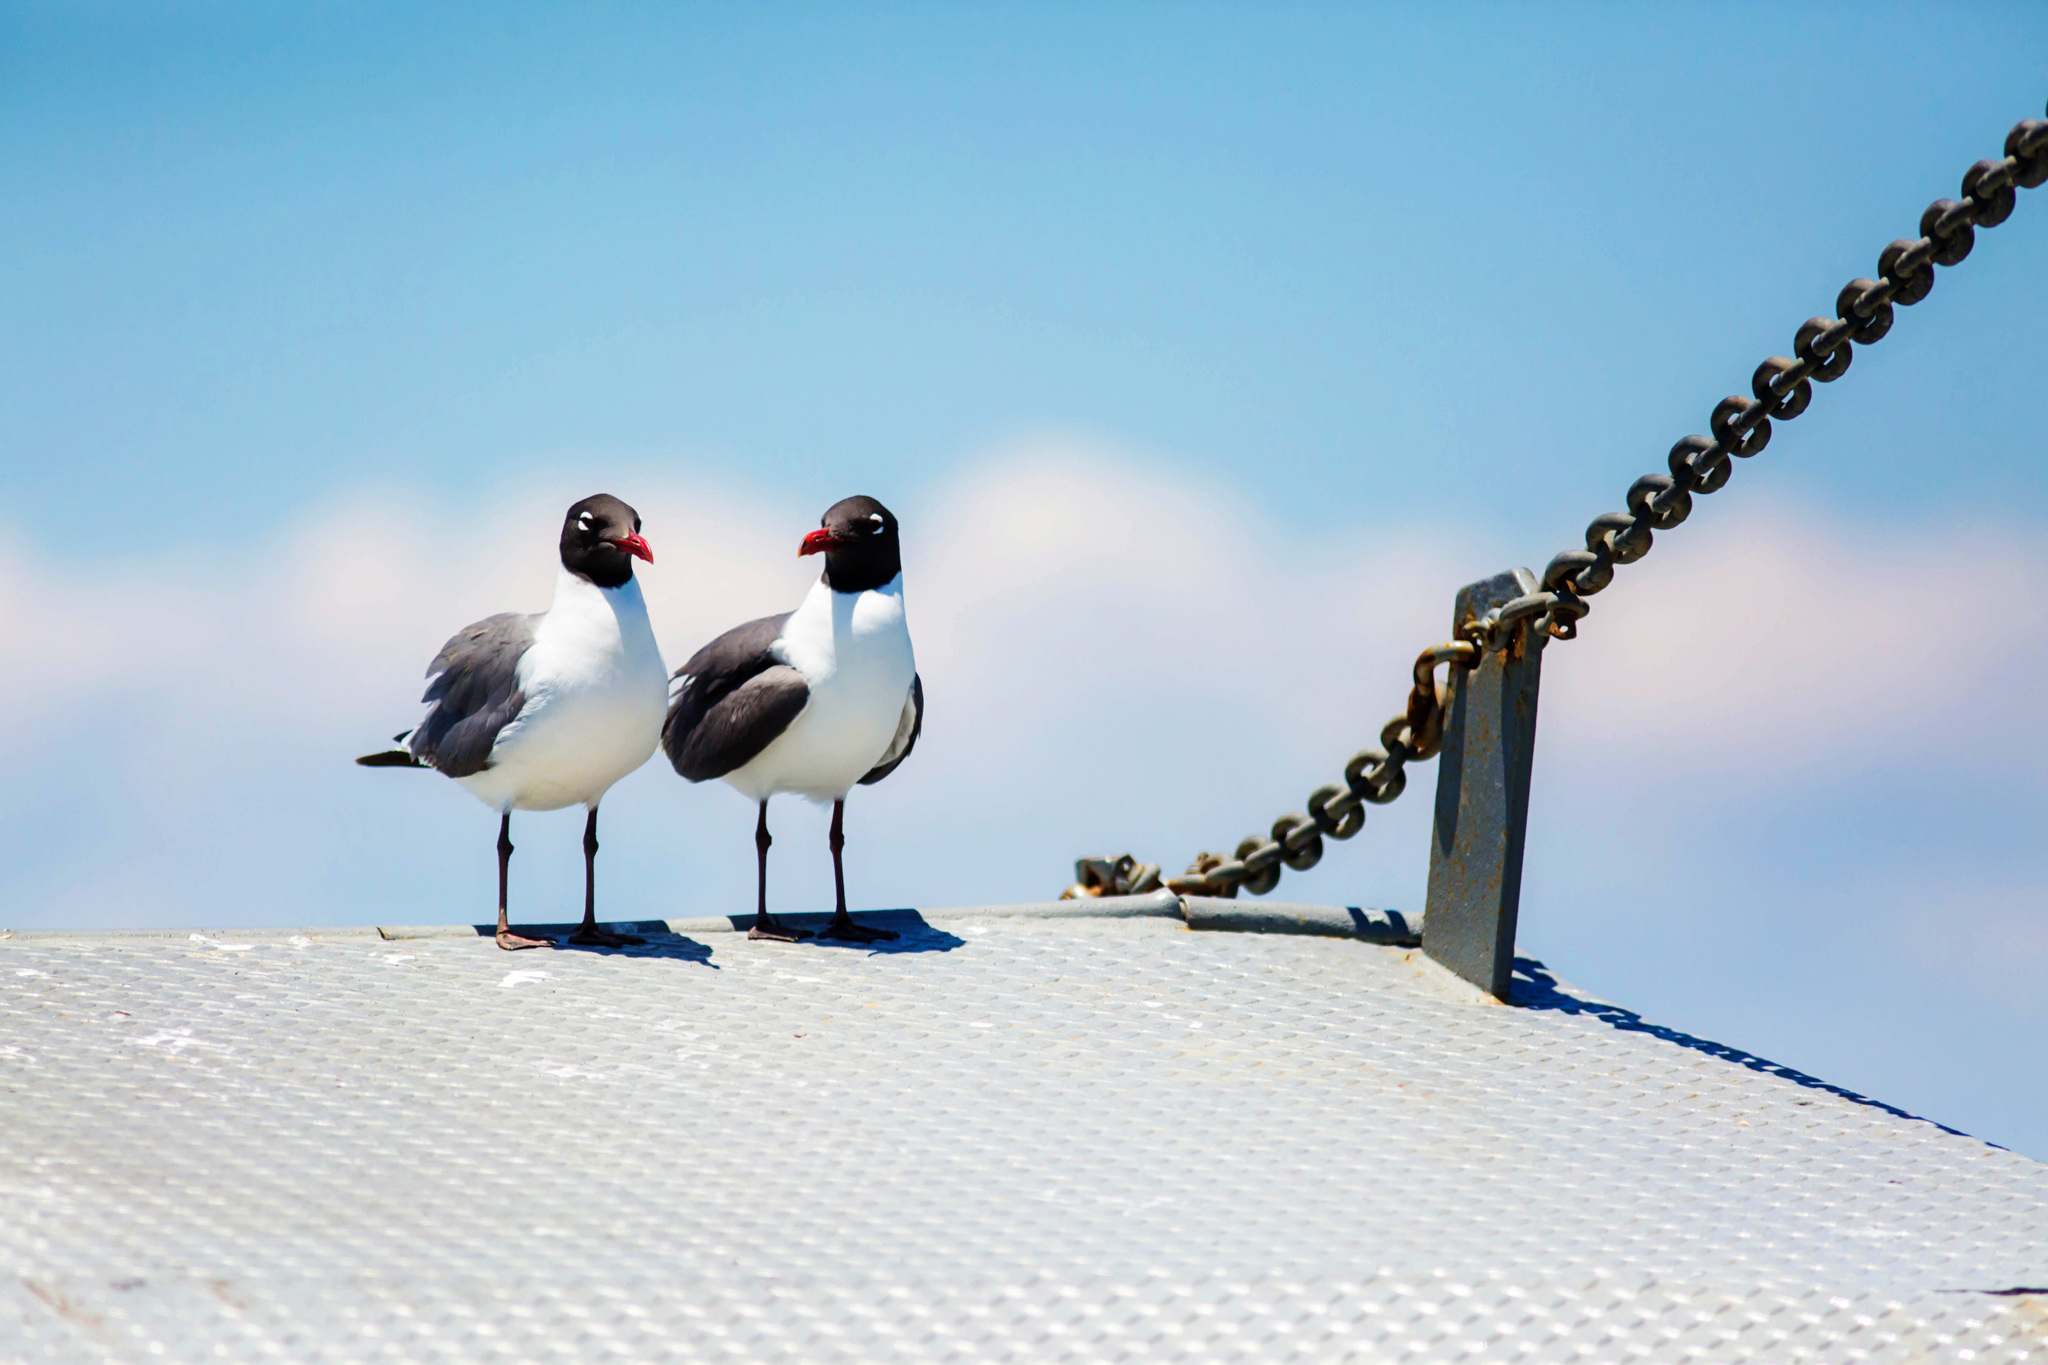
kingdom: Animalia
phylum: Chordata
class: Aves
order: Charadriiformes
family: Laridae
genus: Leucophaeus
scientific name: Leucophaeus atricilla
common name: Laughing gull
